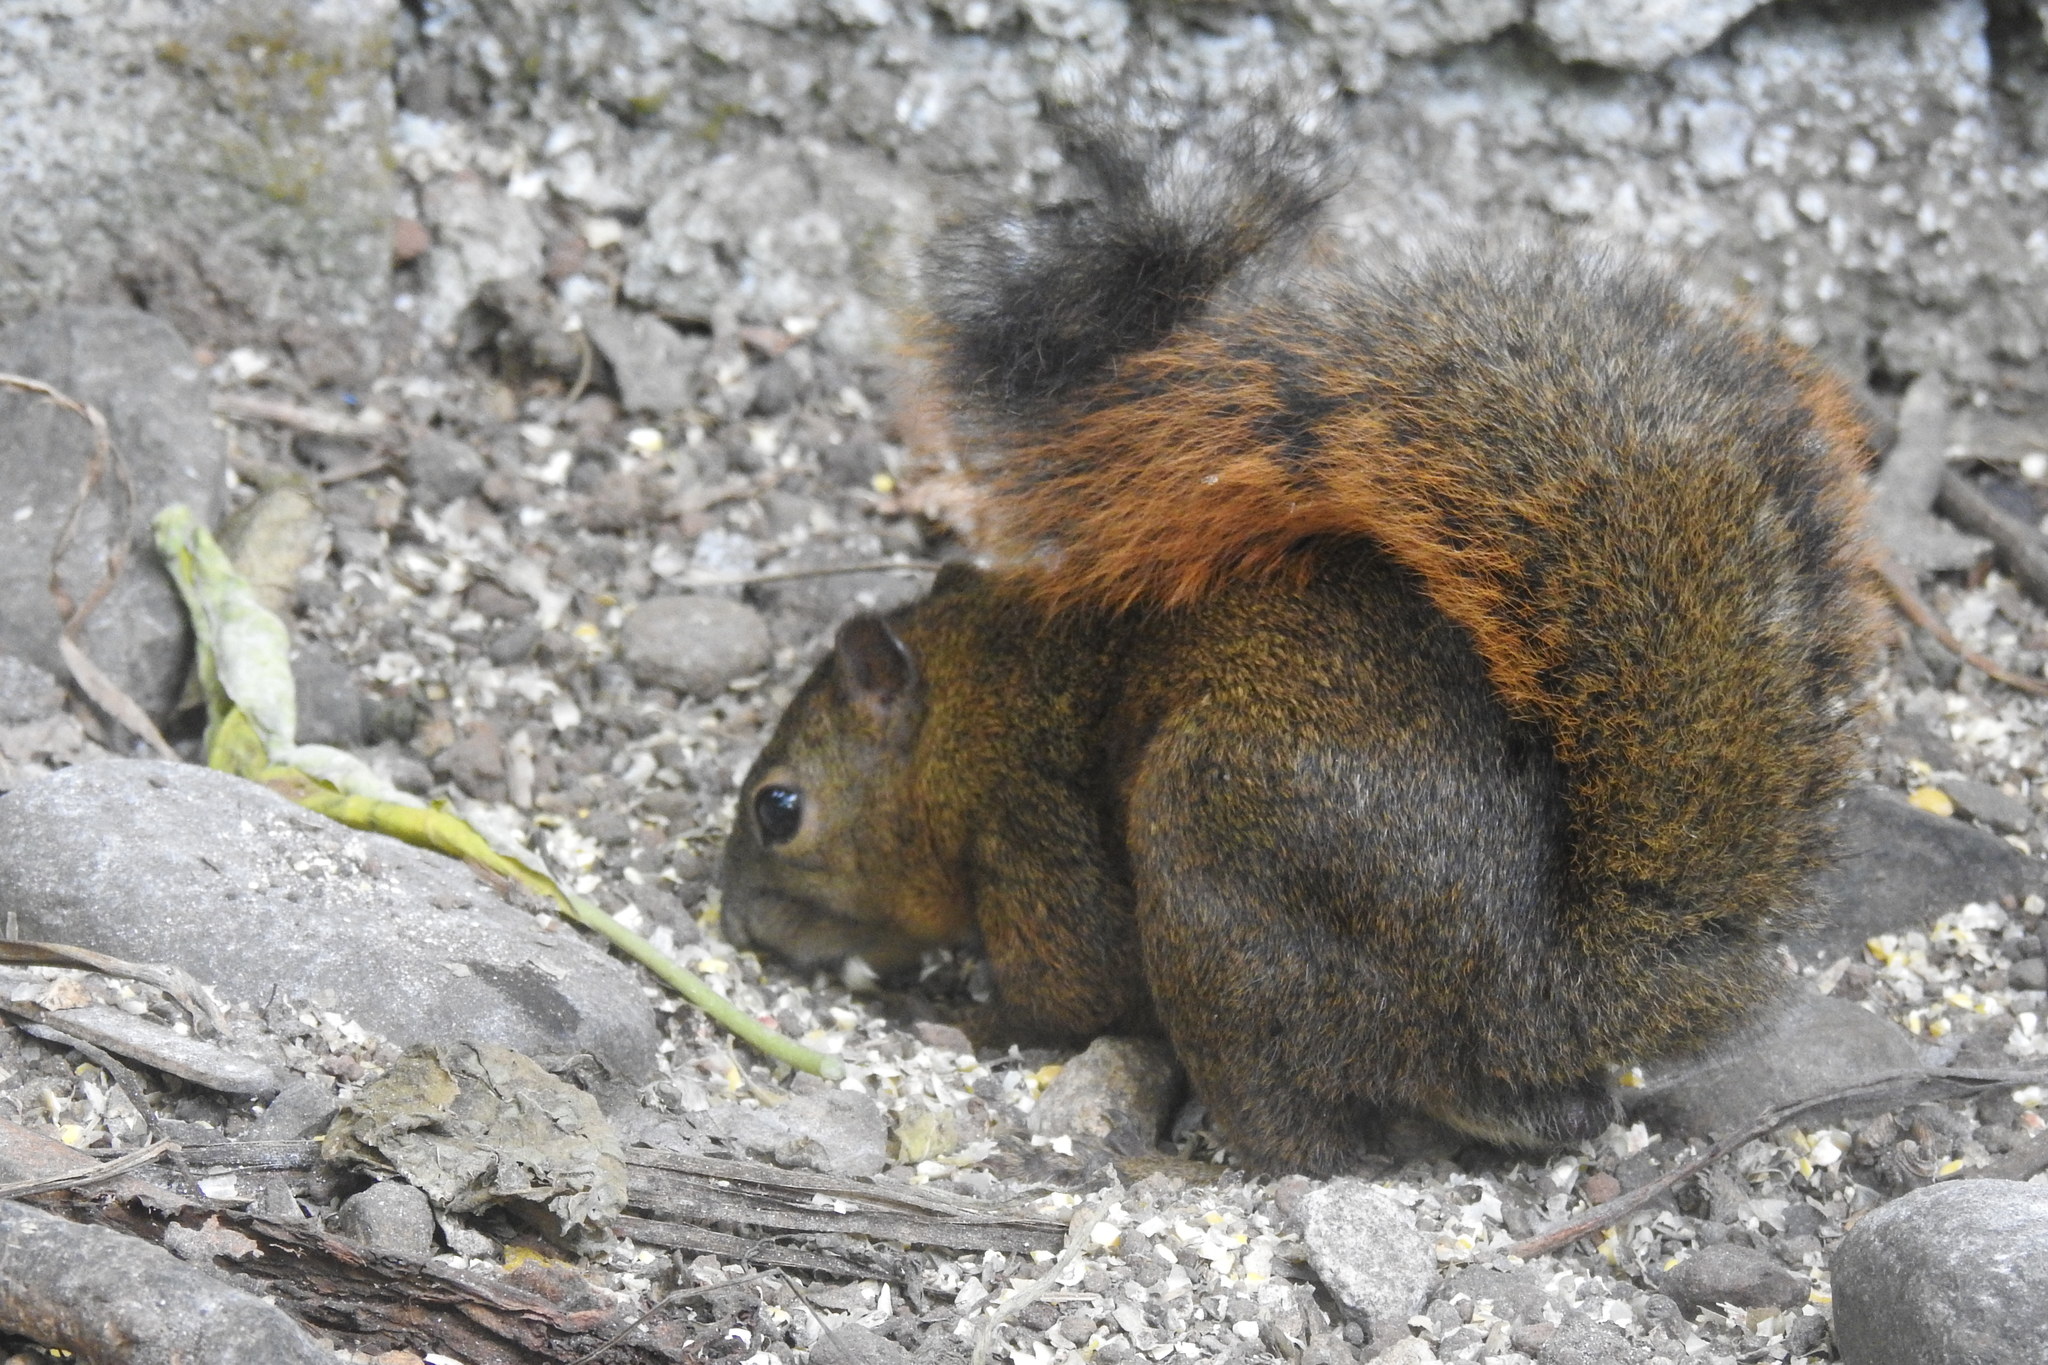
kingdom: Animalia
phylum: Chordata
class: Mammalia
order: Rodentia
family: Sciuridae
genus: Sciurus
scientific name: Sciurus granatensis
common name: Red-tailed squirrel
